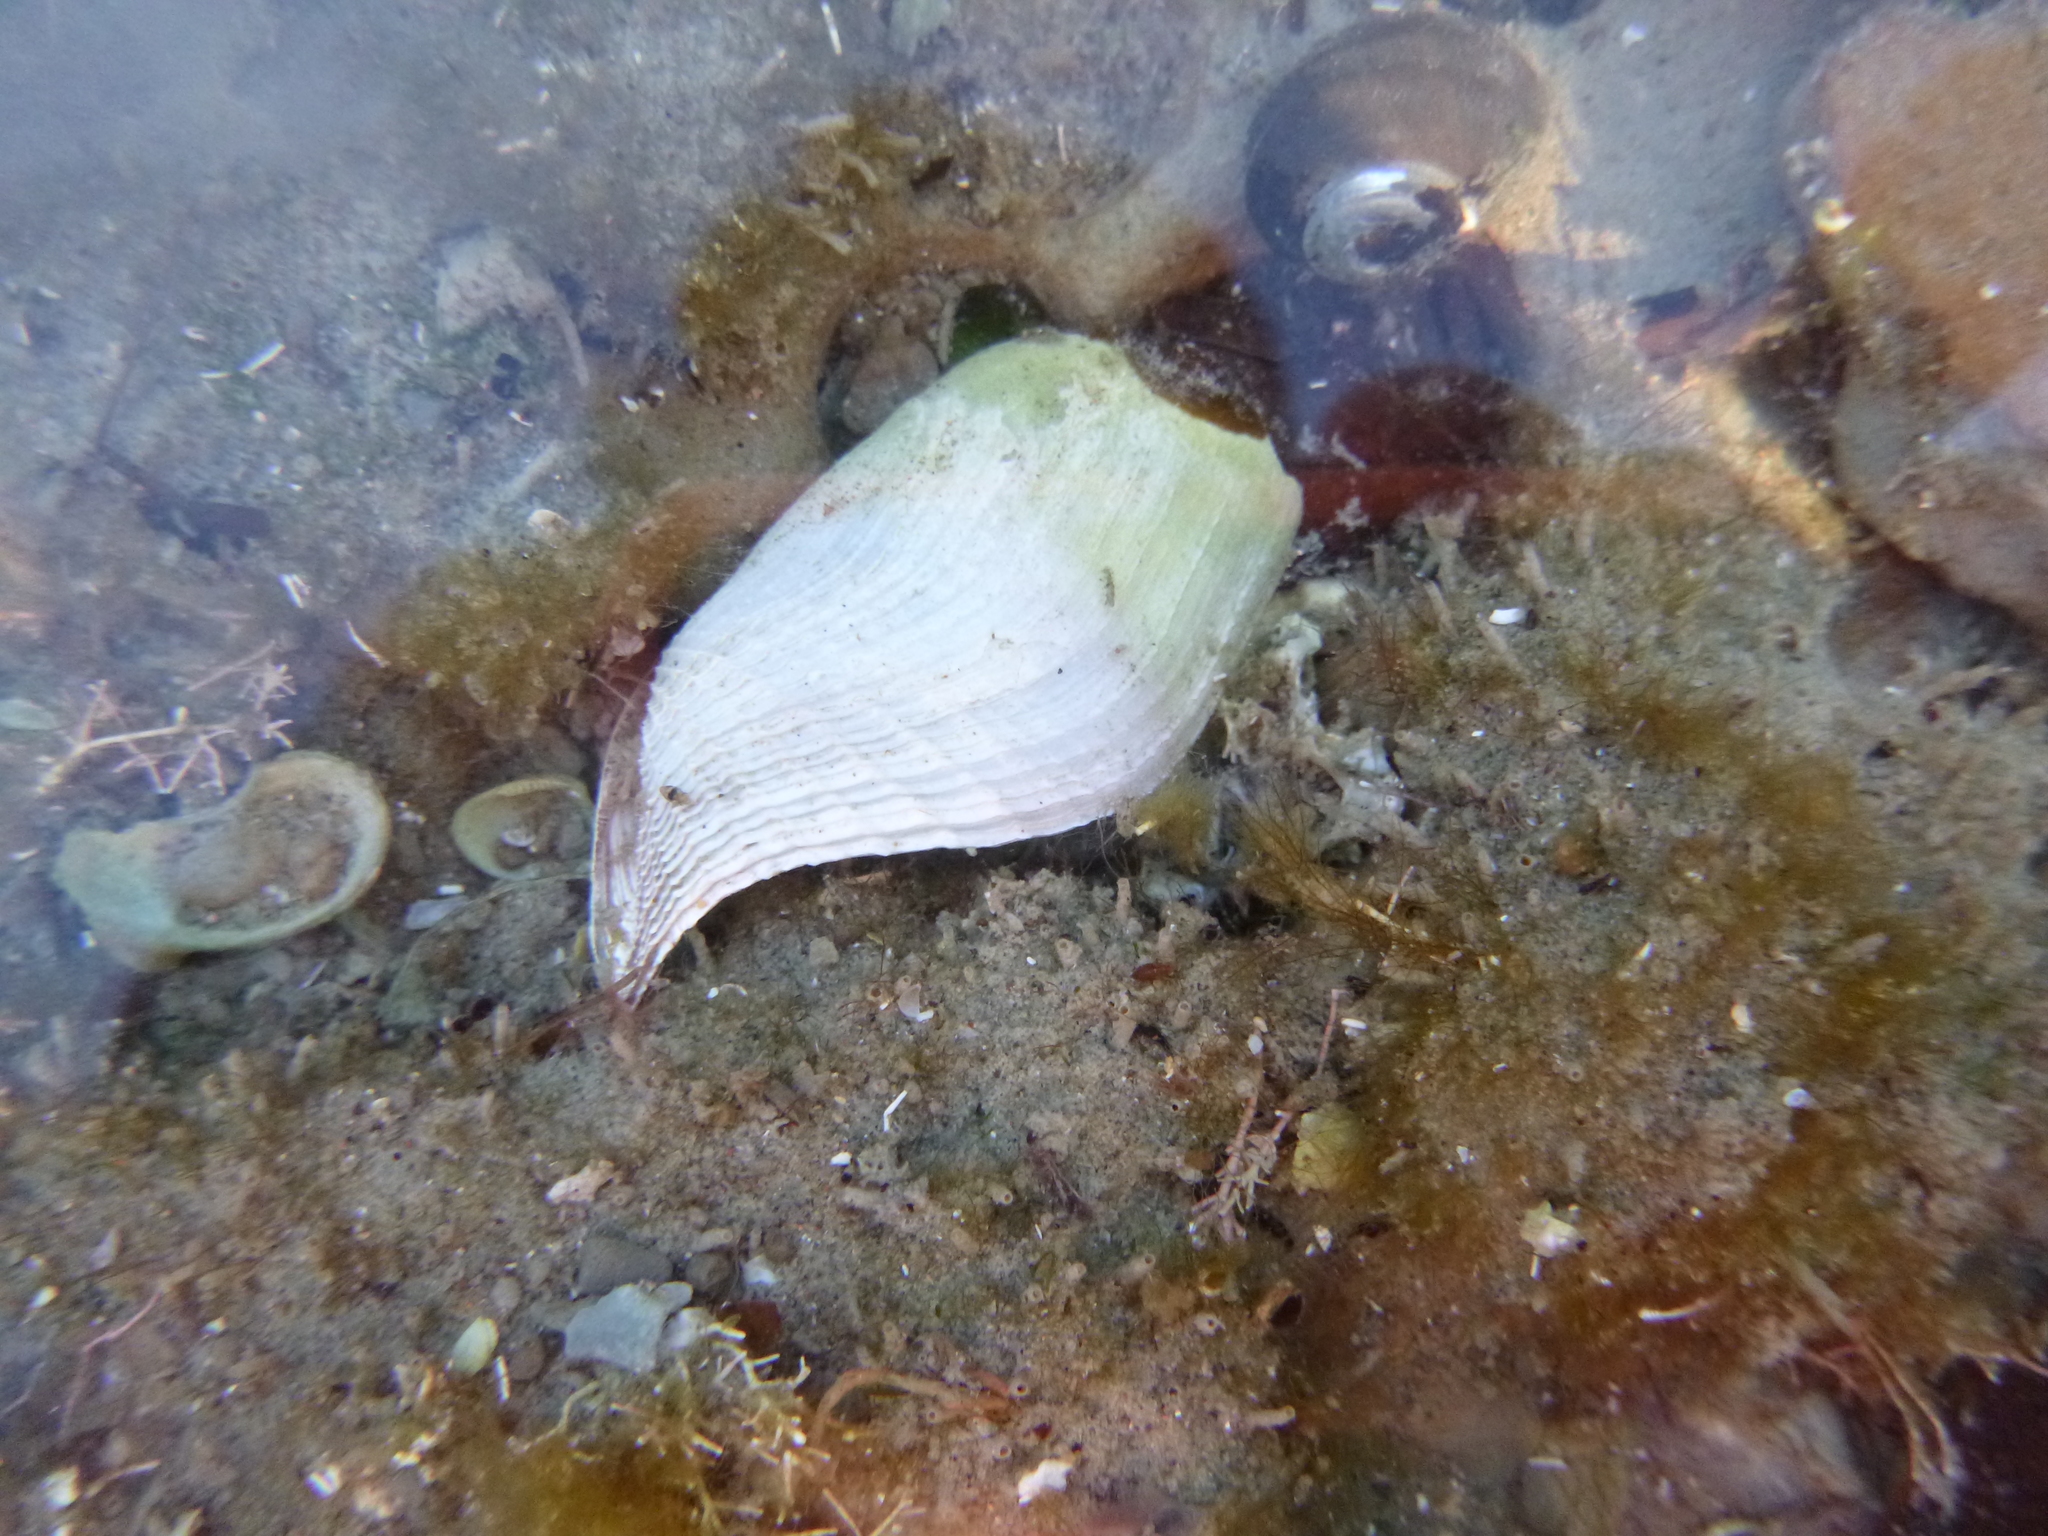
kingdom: Animalia
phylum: Mollusca
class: Bivalvia
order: Myida
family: Pholadidae
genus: Barnea
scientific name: Barnea similis
